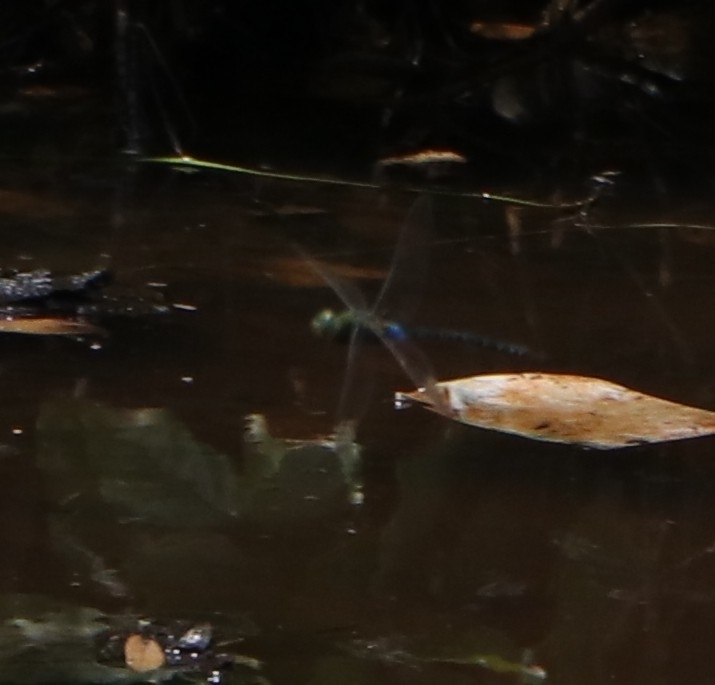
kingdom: Animalia
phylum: Arthropoda
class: Insecta
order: Odonata
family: Aeshnidae
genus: Anax
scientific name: Anax guttatus
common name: Emperor
